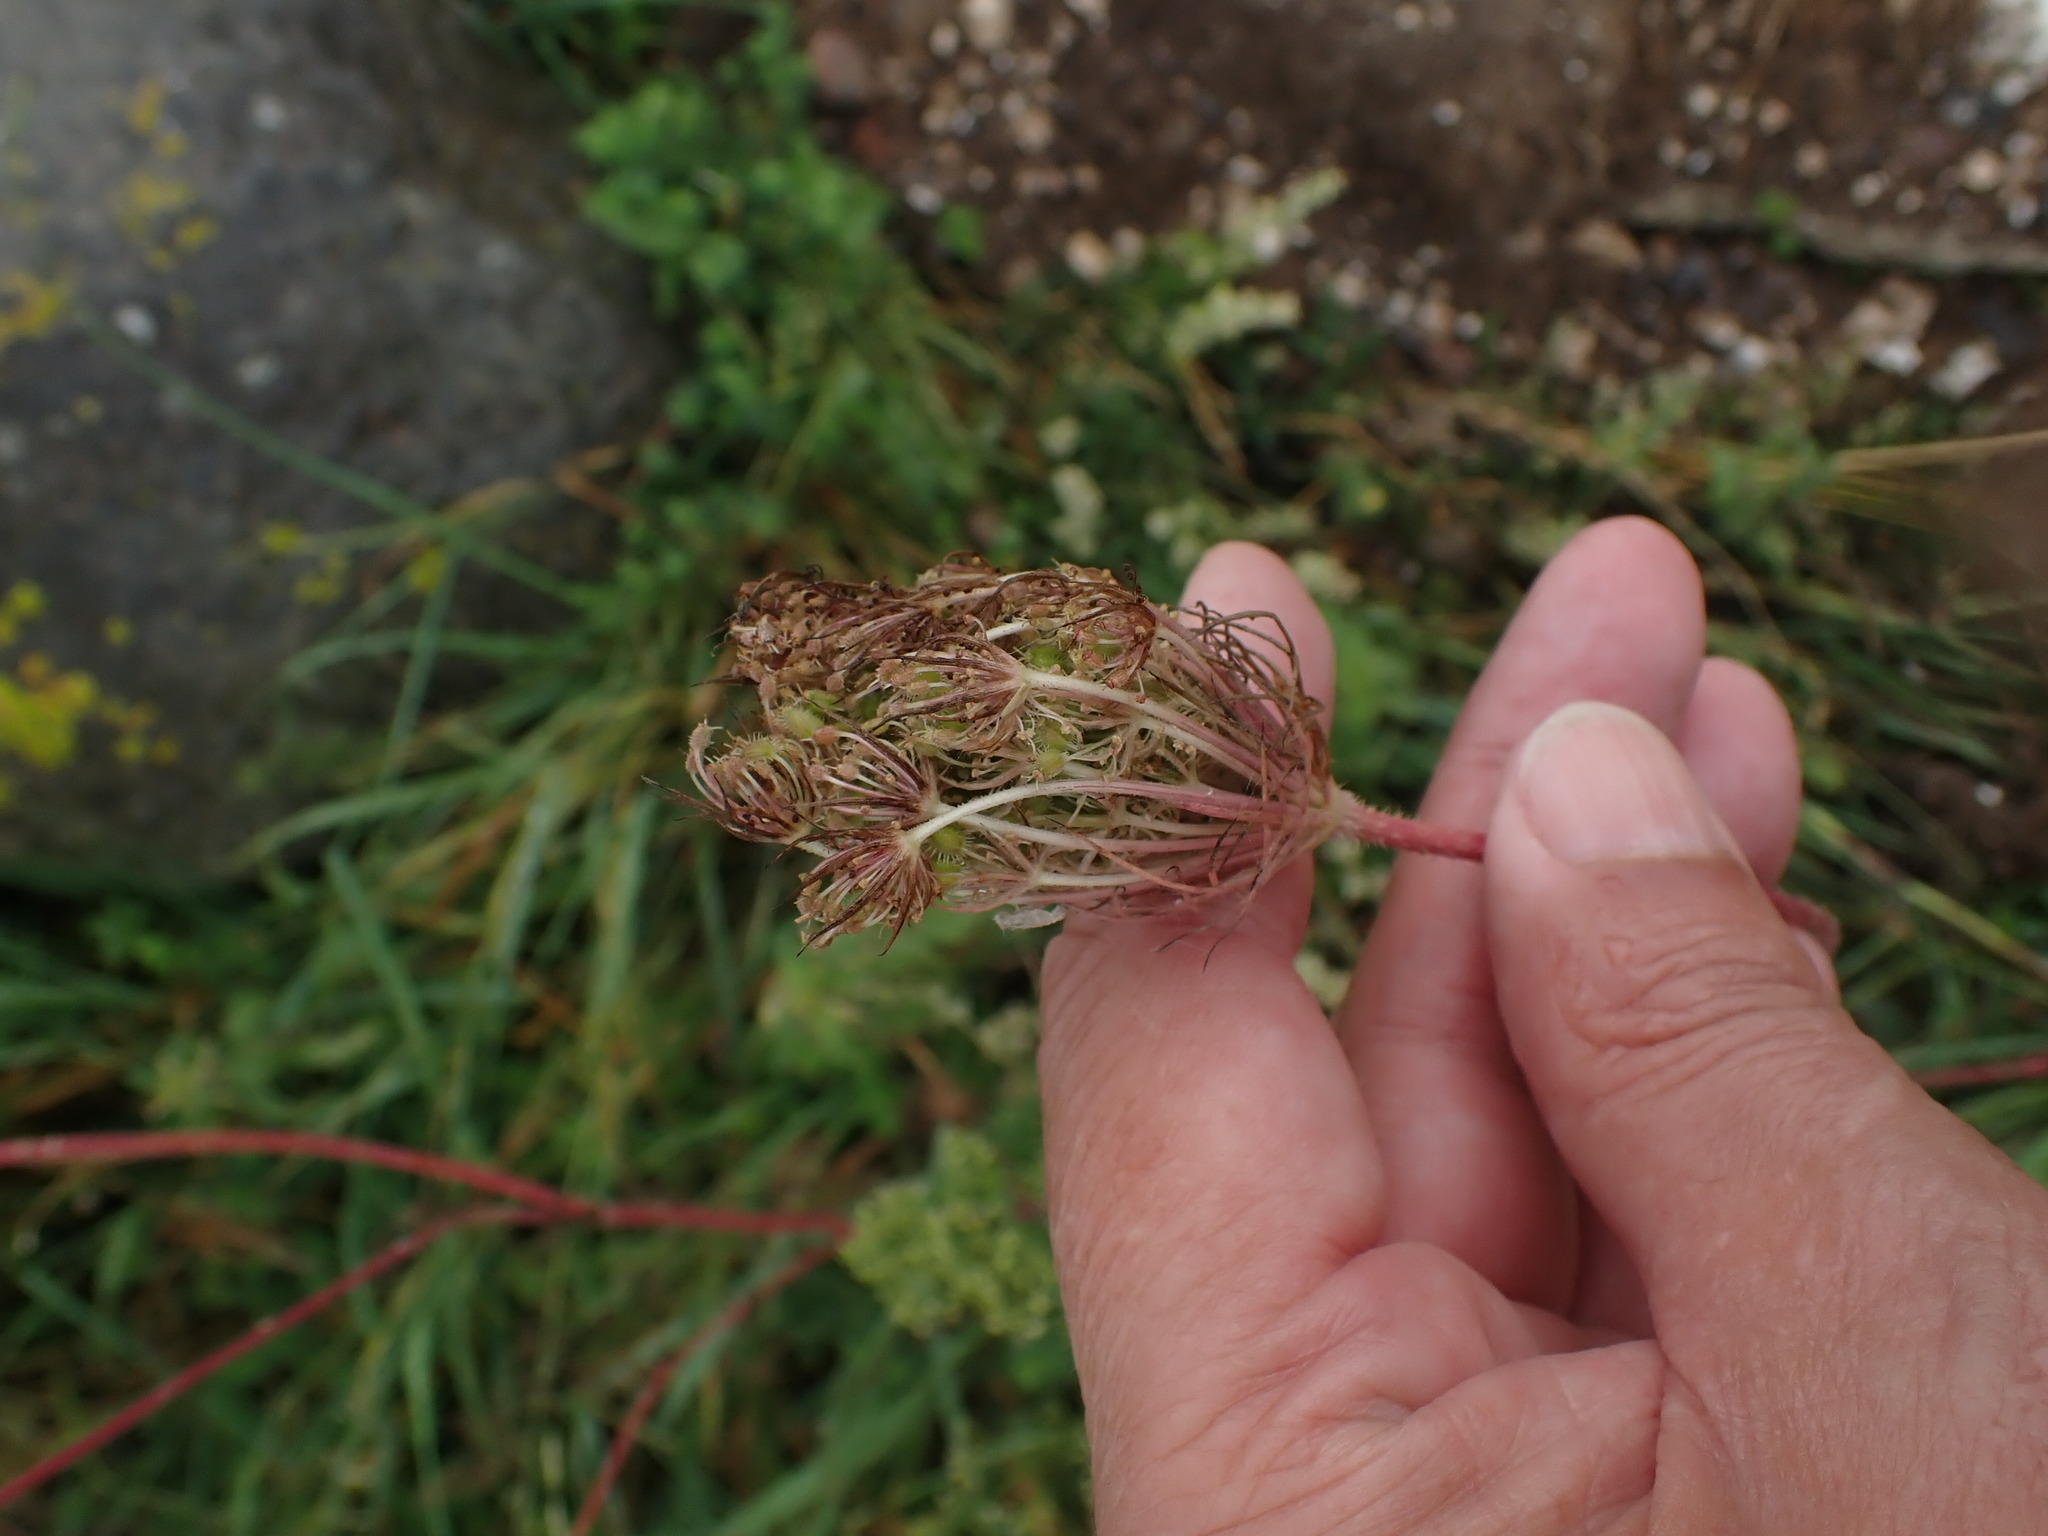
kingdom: Plantae
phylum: Tracheophyta
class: Magnoliopsida
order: Apiales
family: Apiaceae
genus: Daucus
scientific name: Daucus carota
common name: Wild carrot
